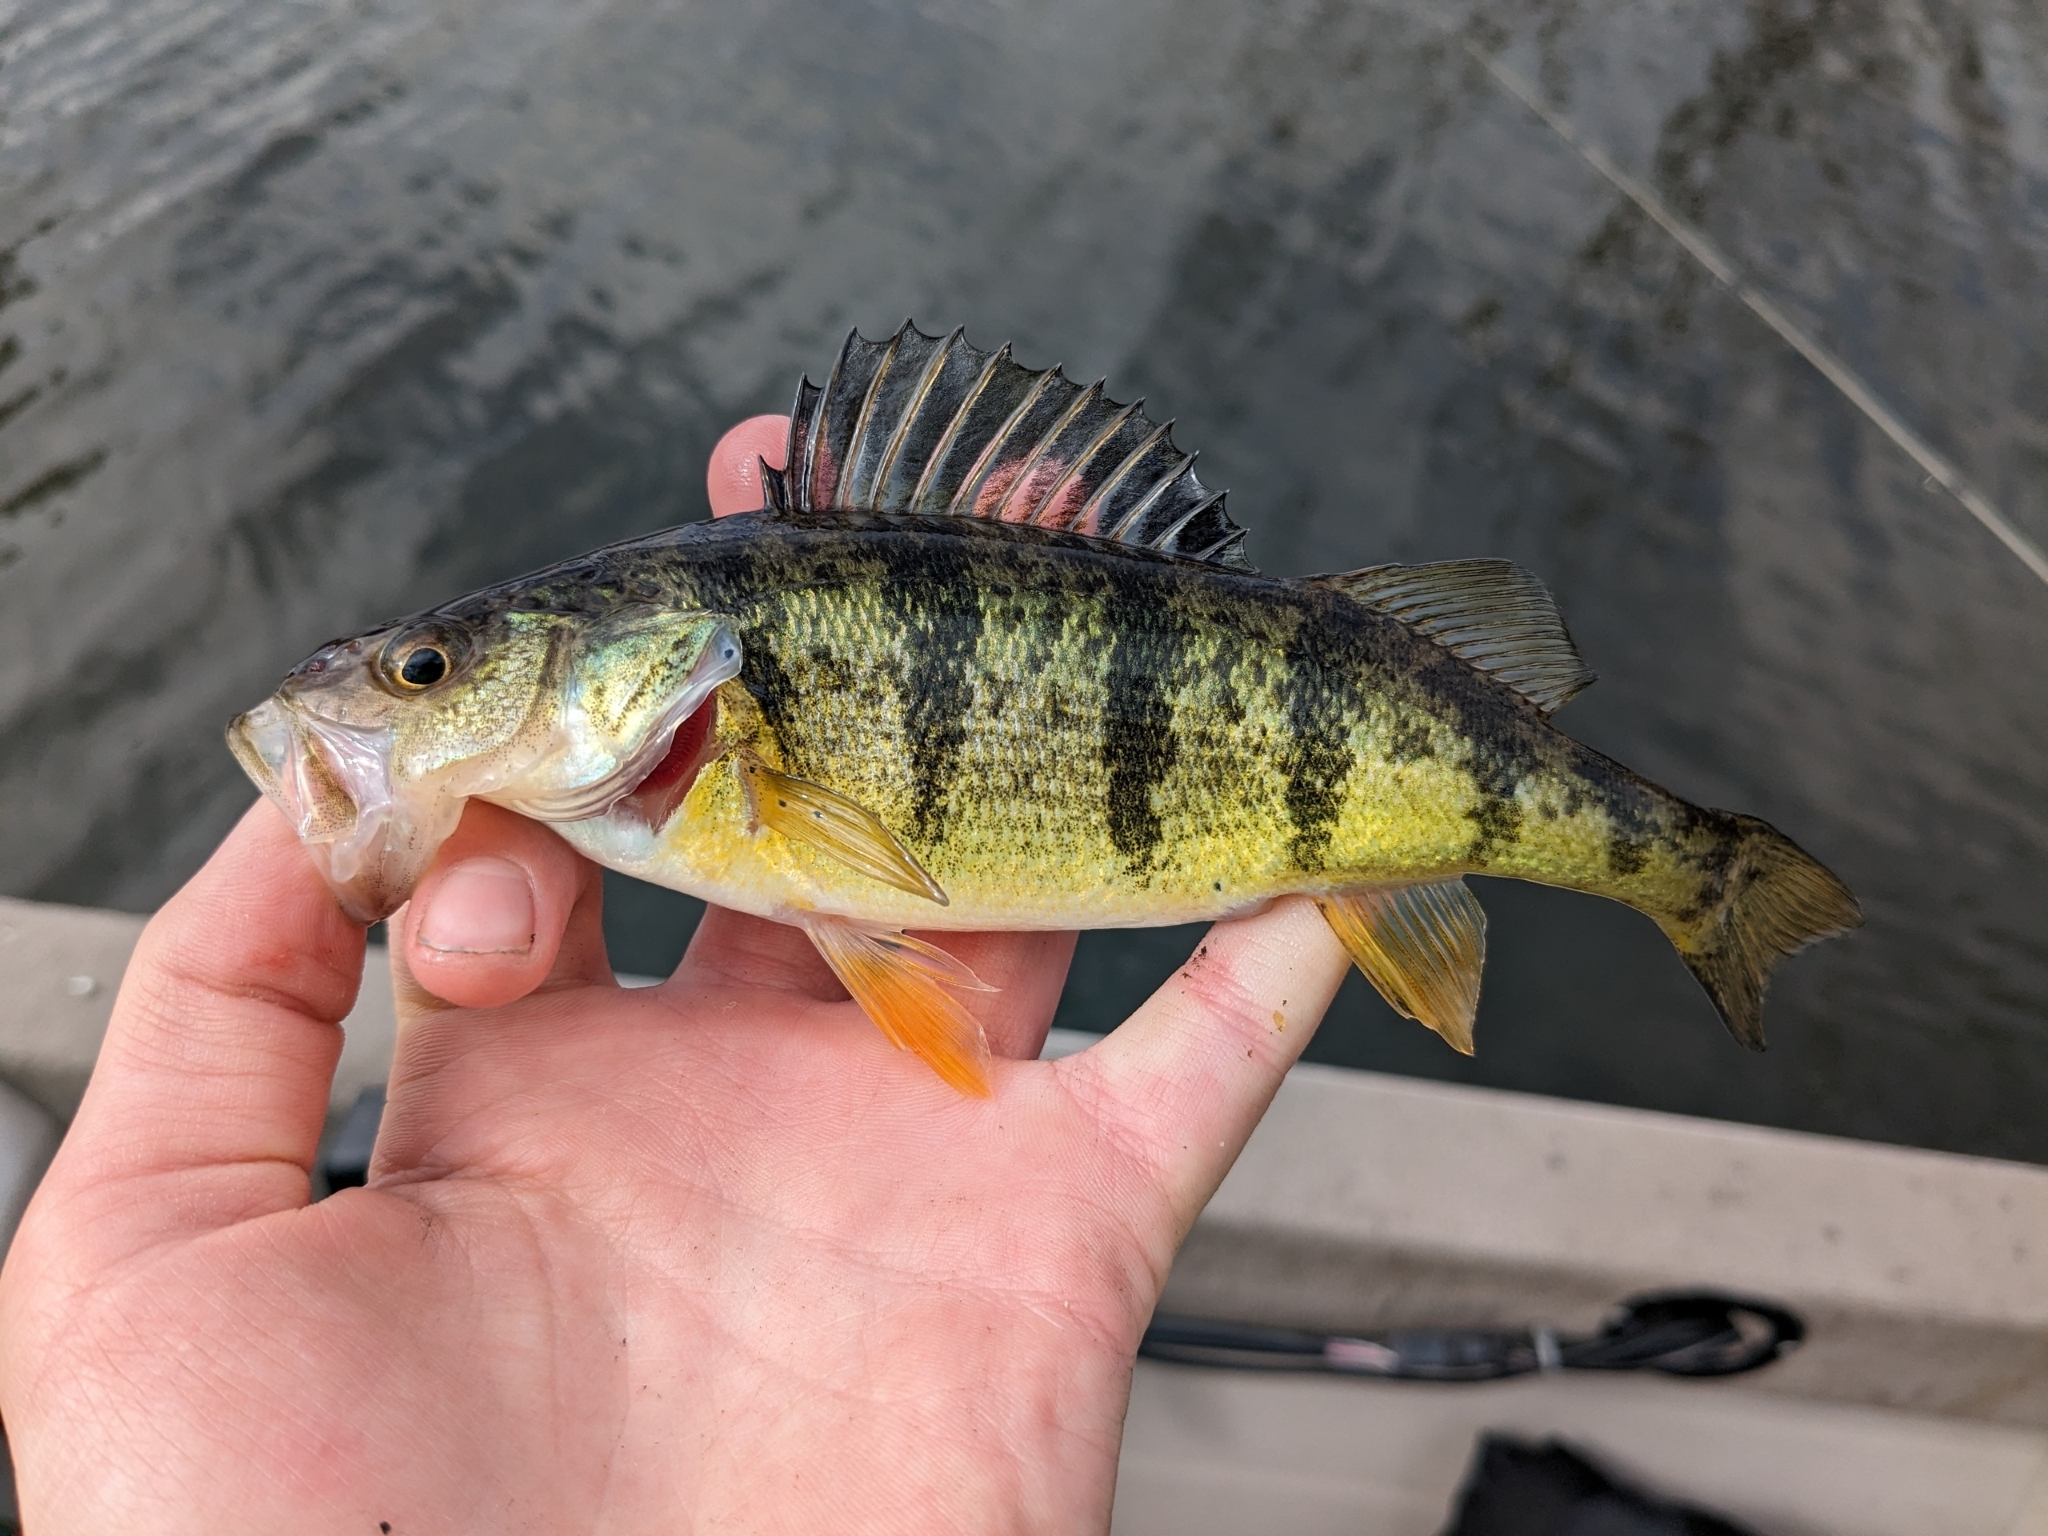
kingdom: Animalia
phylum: Chordata
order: Perciformes
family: Percidae
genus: Perca
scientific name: Perca flavescens
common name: Yellow perch
